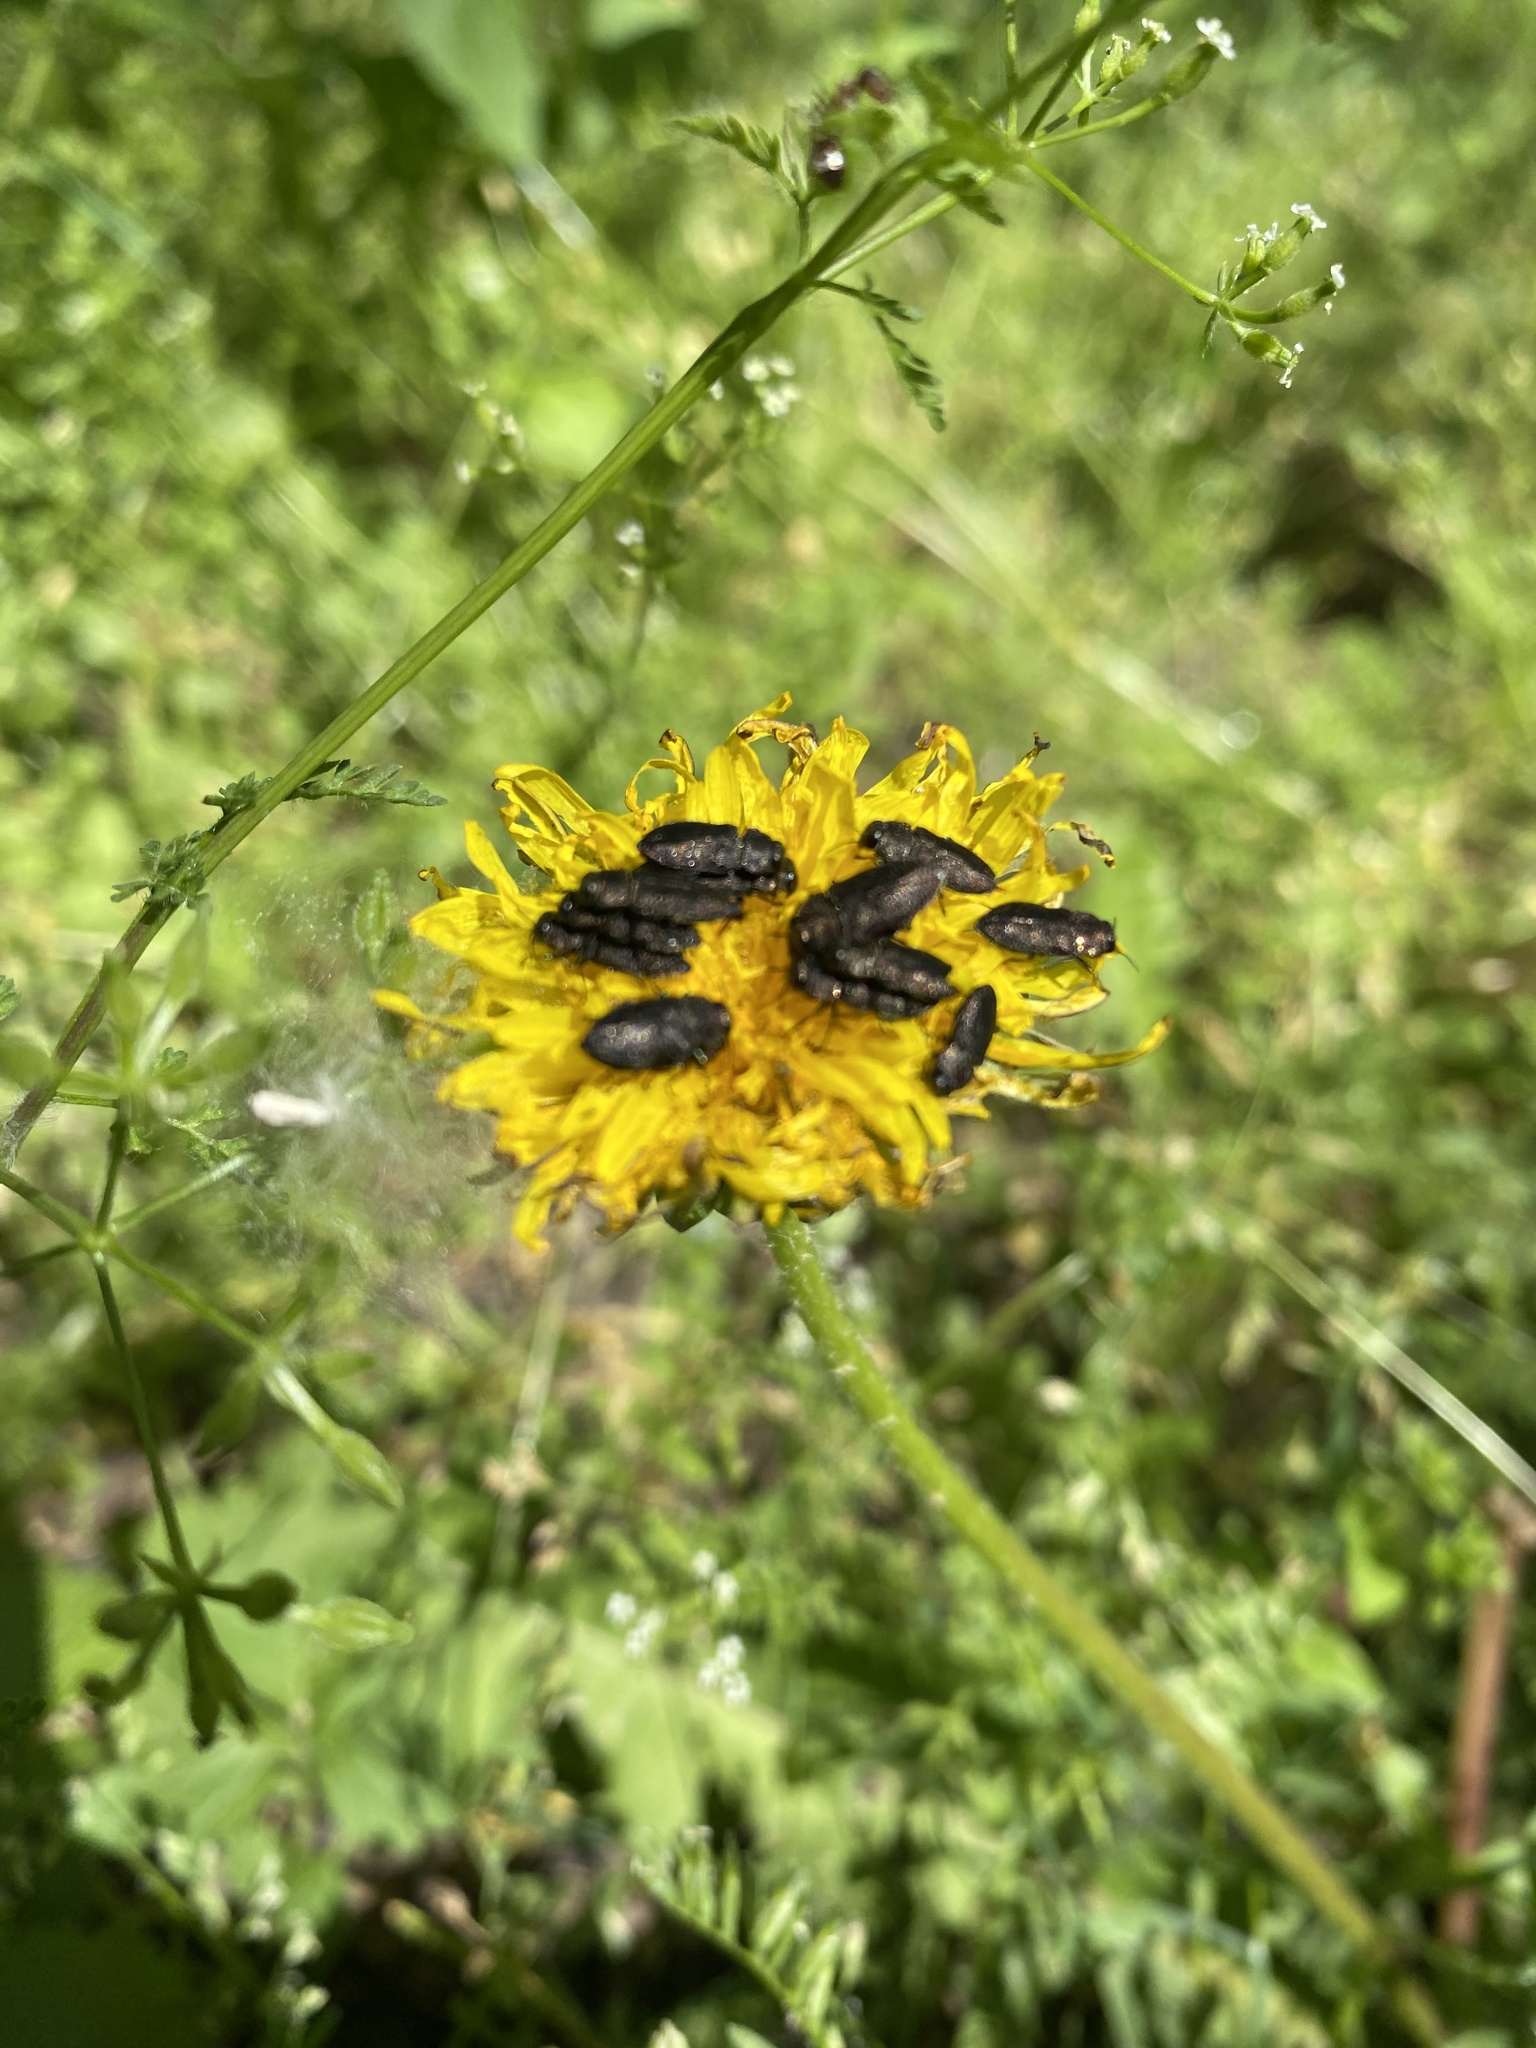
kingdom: Animalia
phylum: Arthropoda
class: Insecta
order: Coleoptera
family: Buprestidae
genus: Anthaxia
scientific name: Anthaxia
